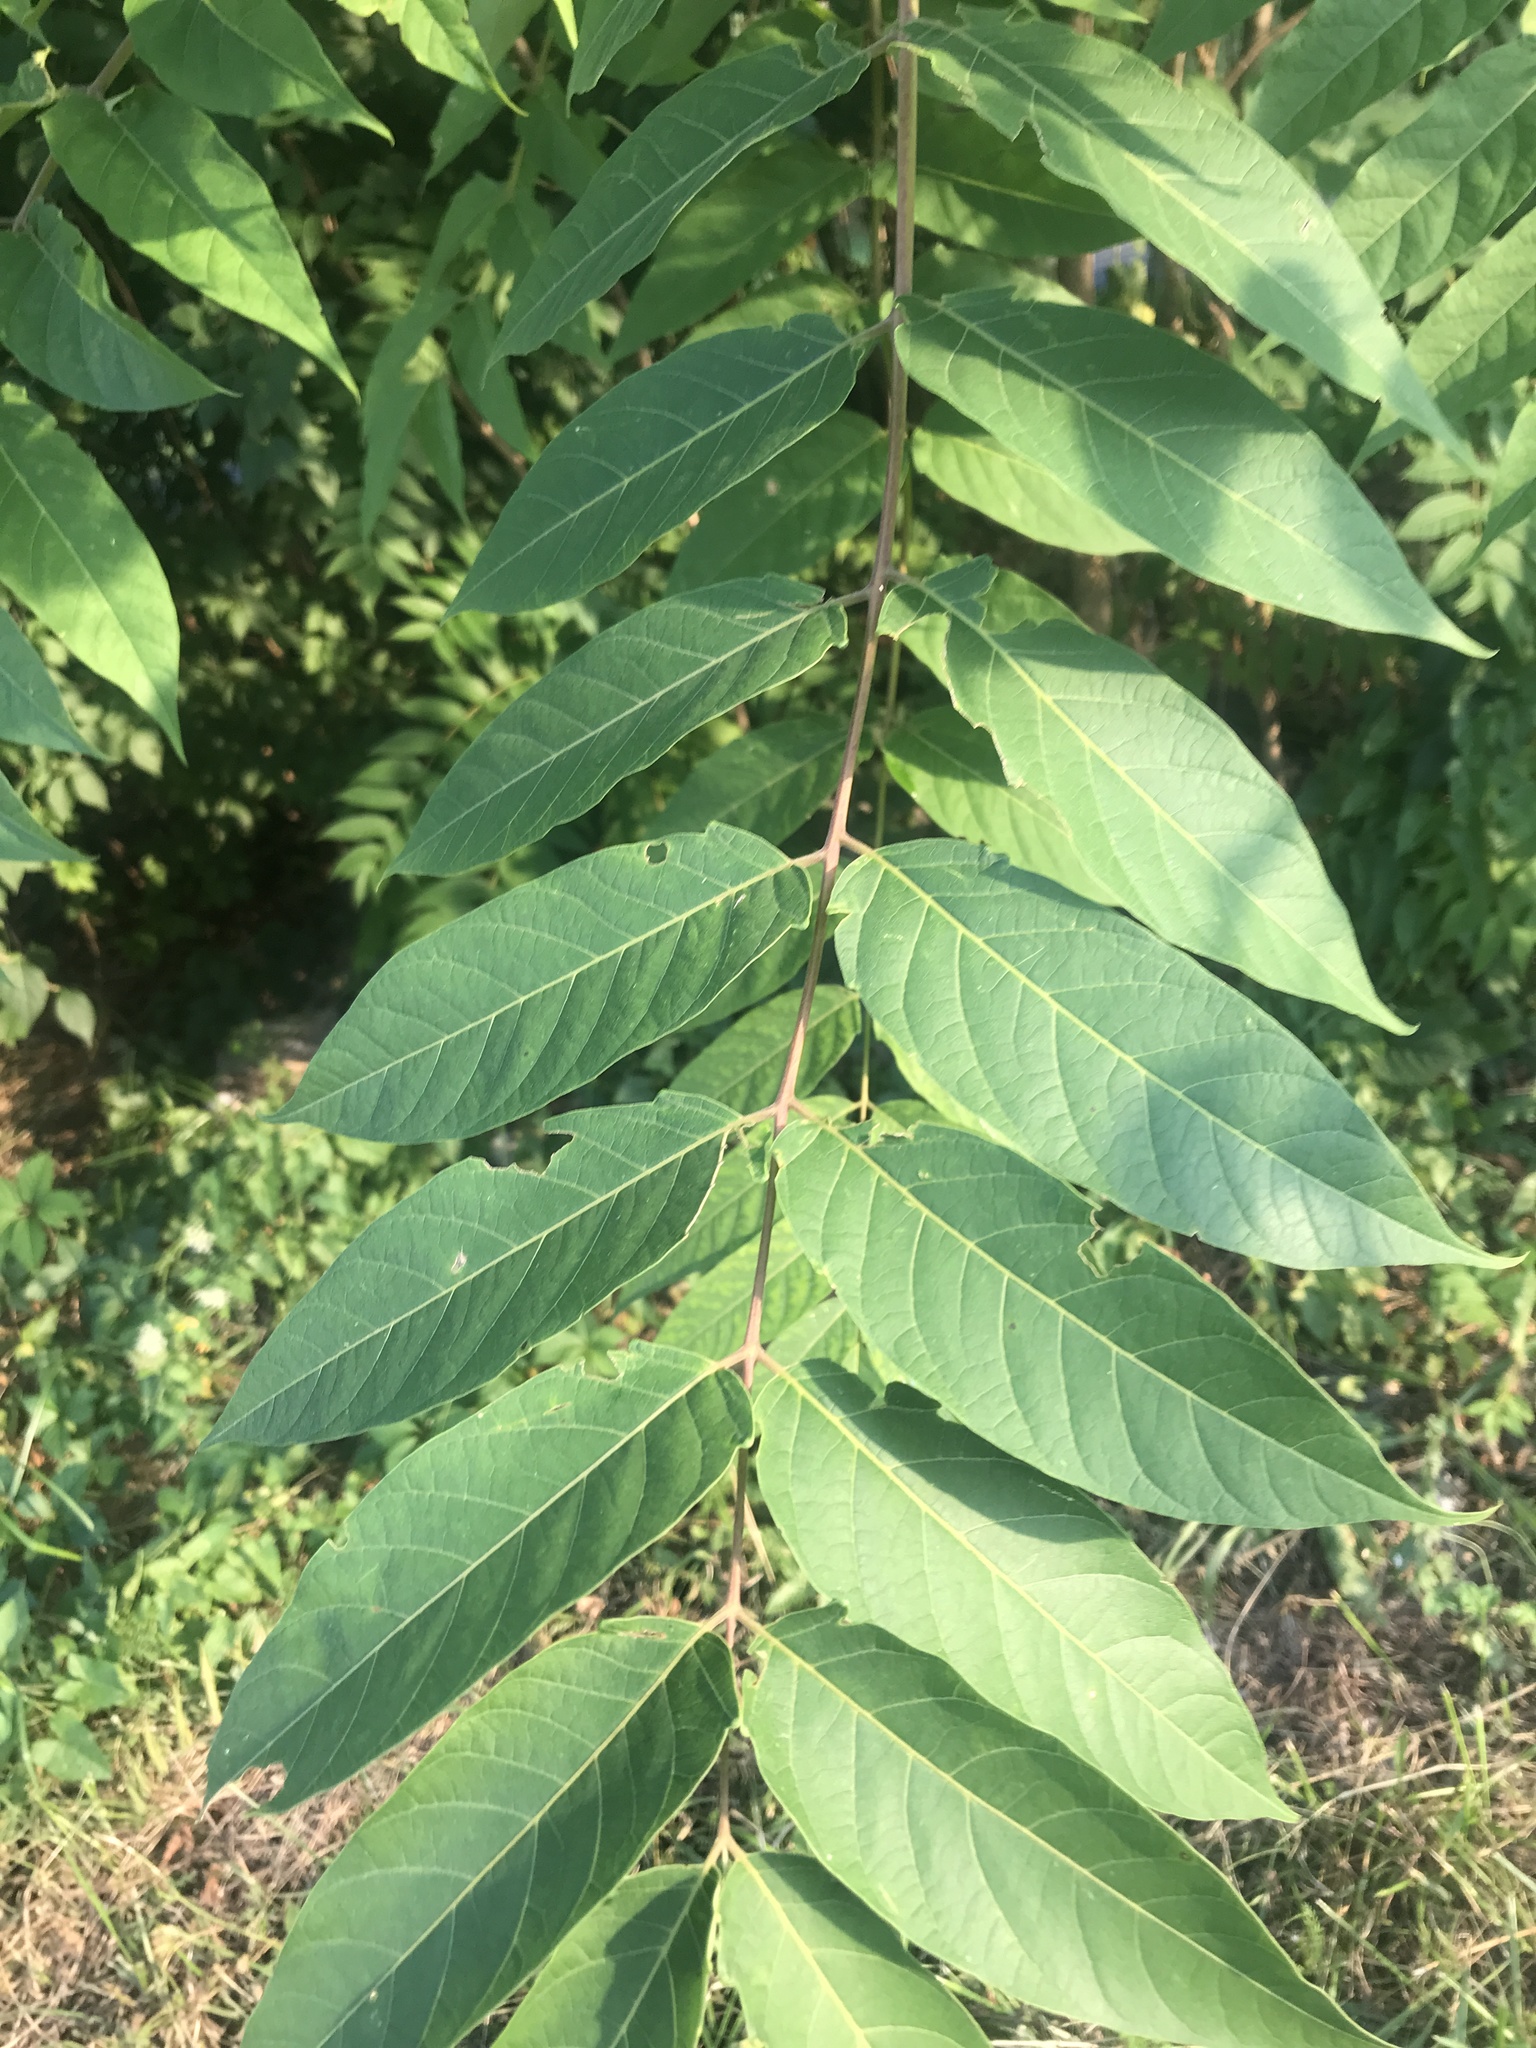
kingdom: Plantae
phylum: Tracheophyta
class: Magnoliopsida
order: Sapindales
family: Simaroubaceae
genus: Ailanthus
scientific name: Ailanthus altissima
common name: Tree-of-heaven
